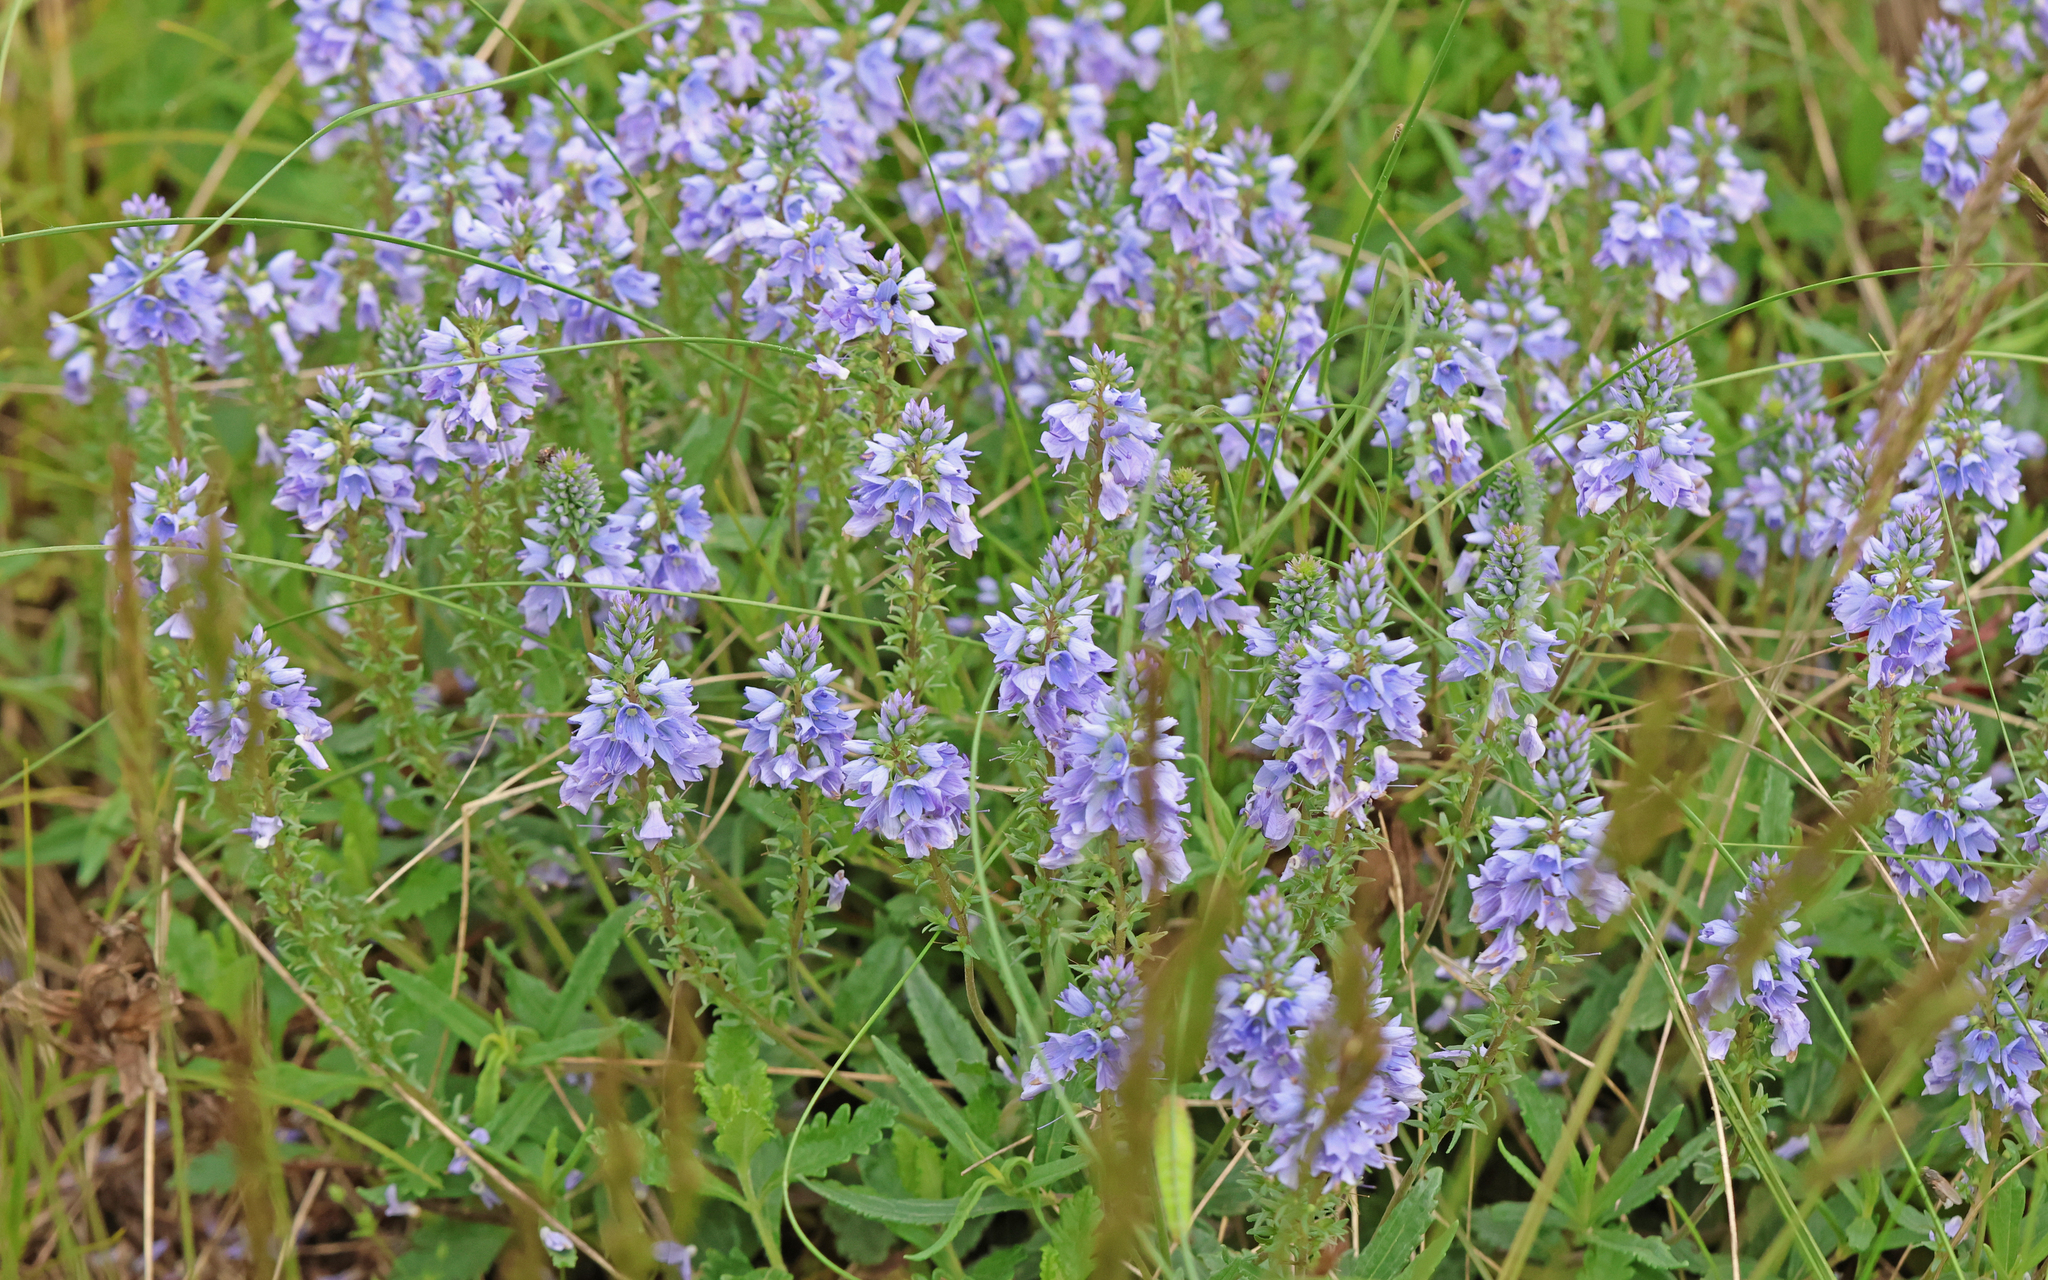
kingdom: Plantae
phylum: Tracheophyta
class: Magnoliopsida
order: Lamiales
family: Plantaginaceae
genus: Veronica
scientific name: Veronica prostrata
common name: Prostrate speedwell
